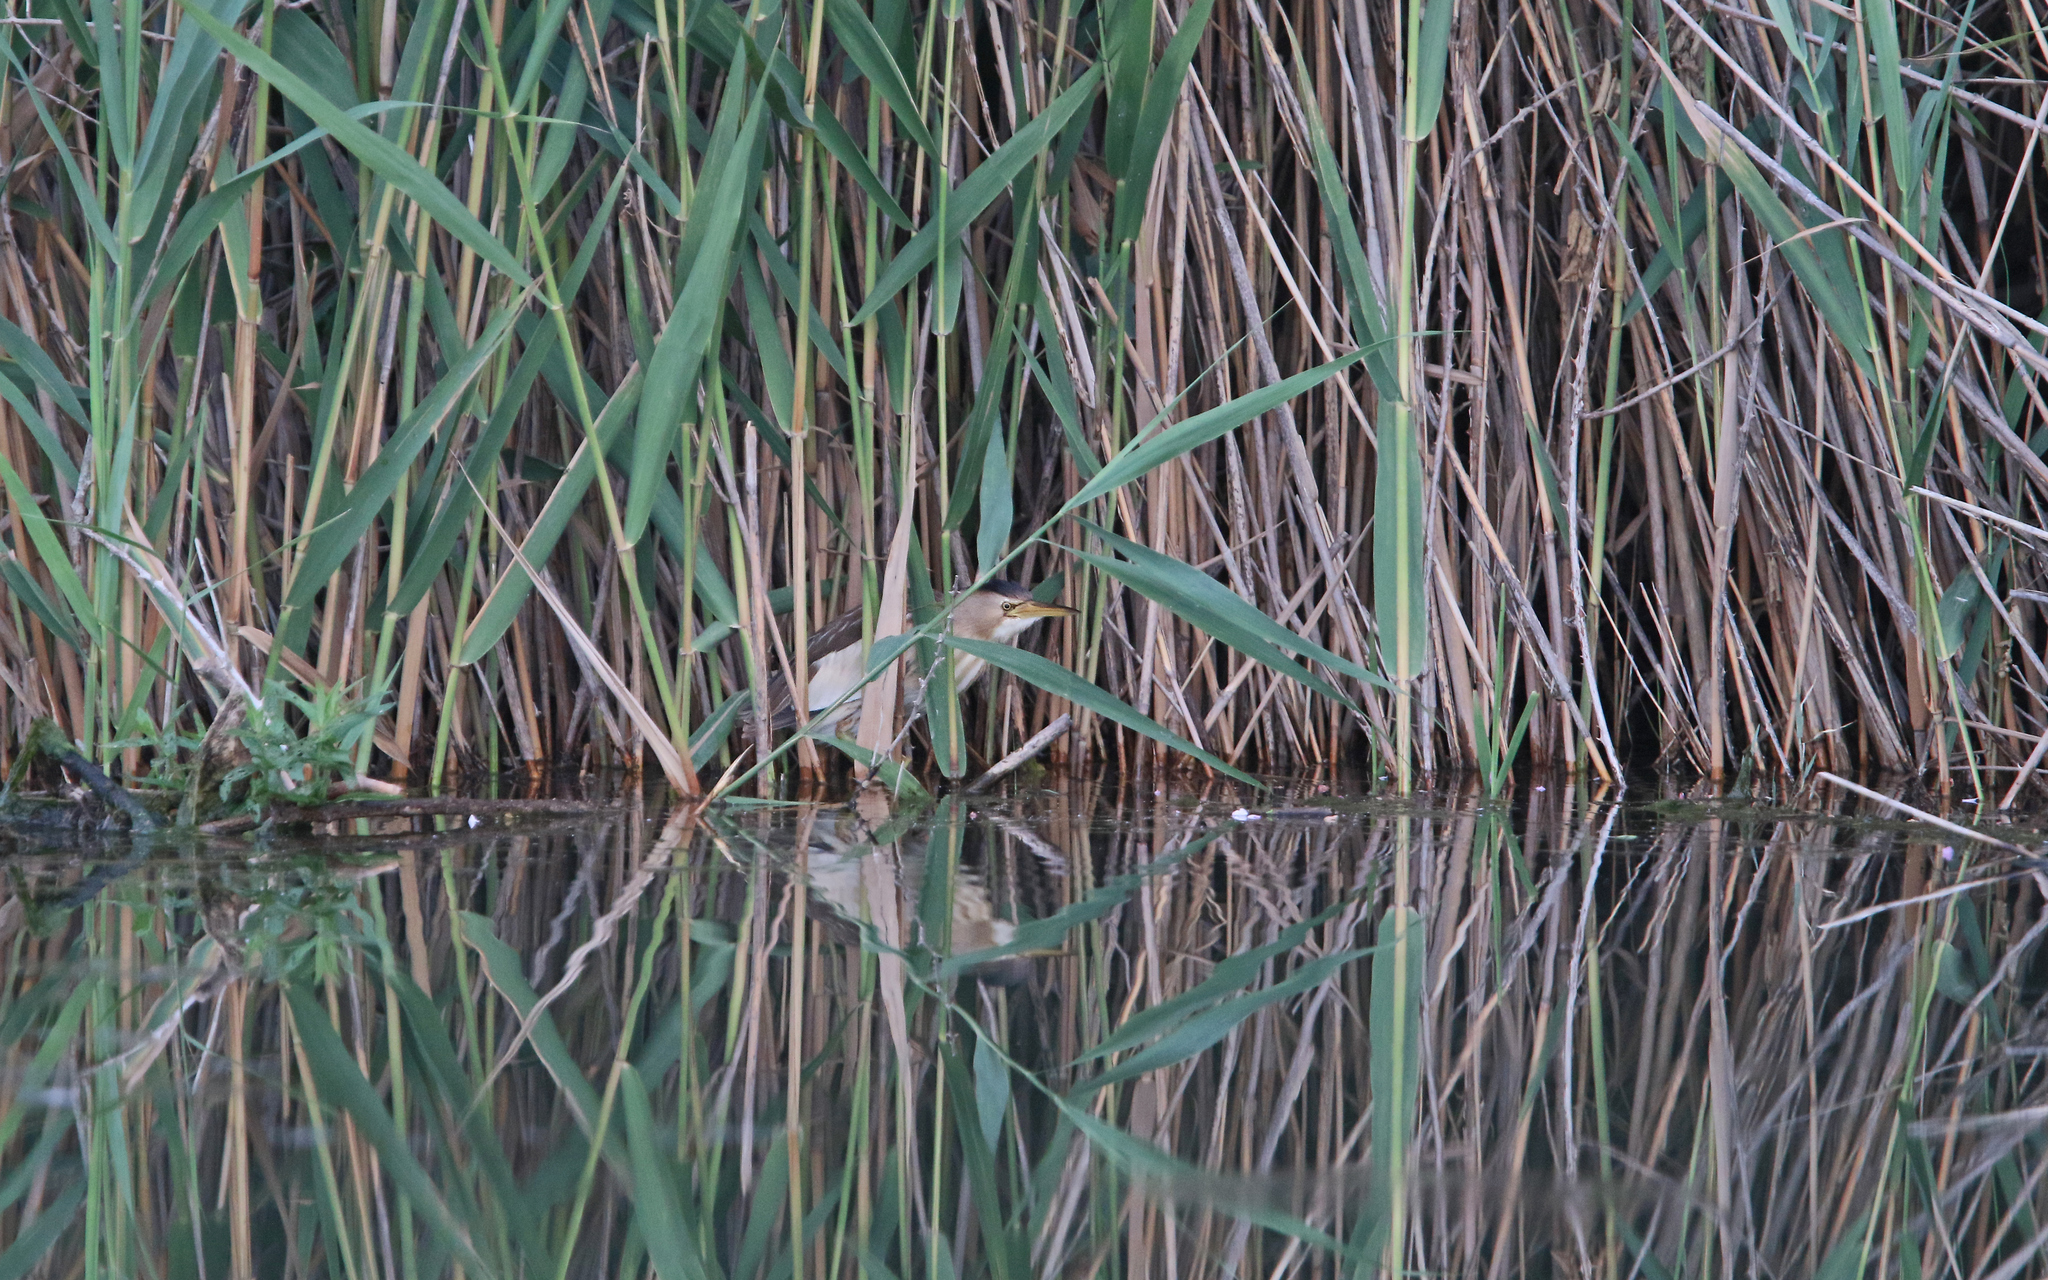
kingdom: Animalia
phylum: Chordata
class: Aves
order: Pelecaniformes
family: Ardeidae
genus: Ixobrychus
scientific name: Ixobrychus minutus
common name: Little bittern
